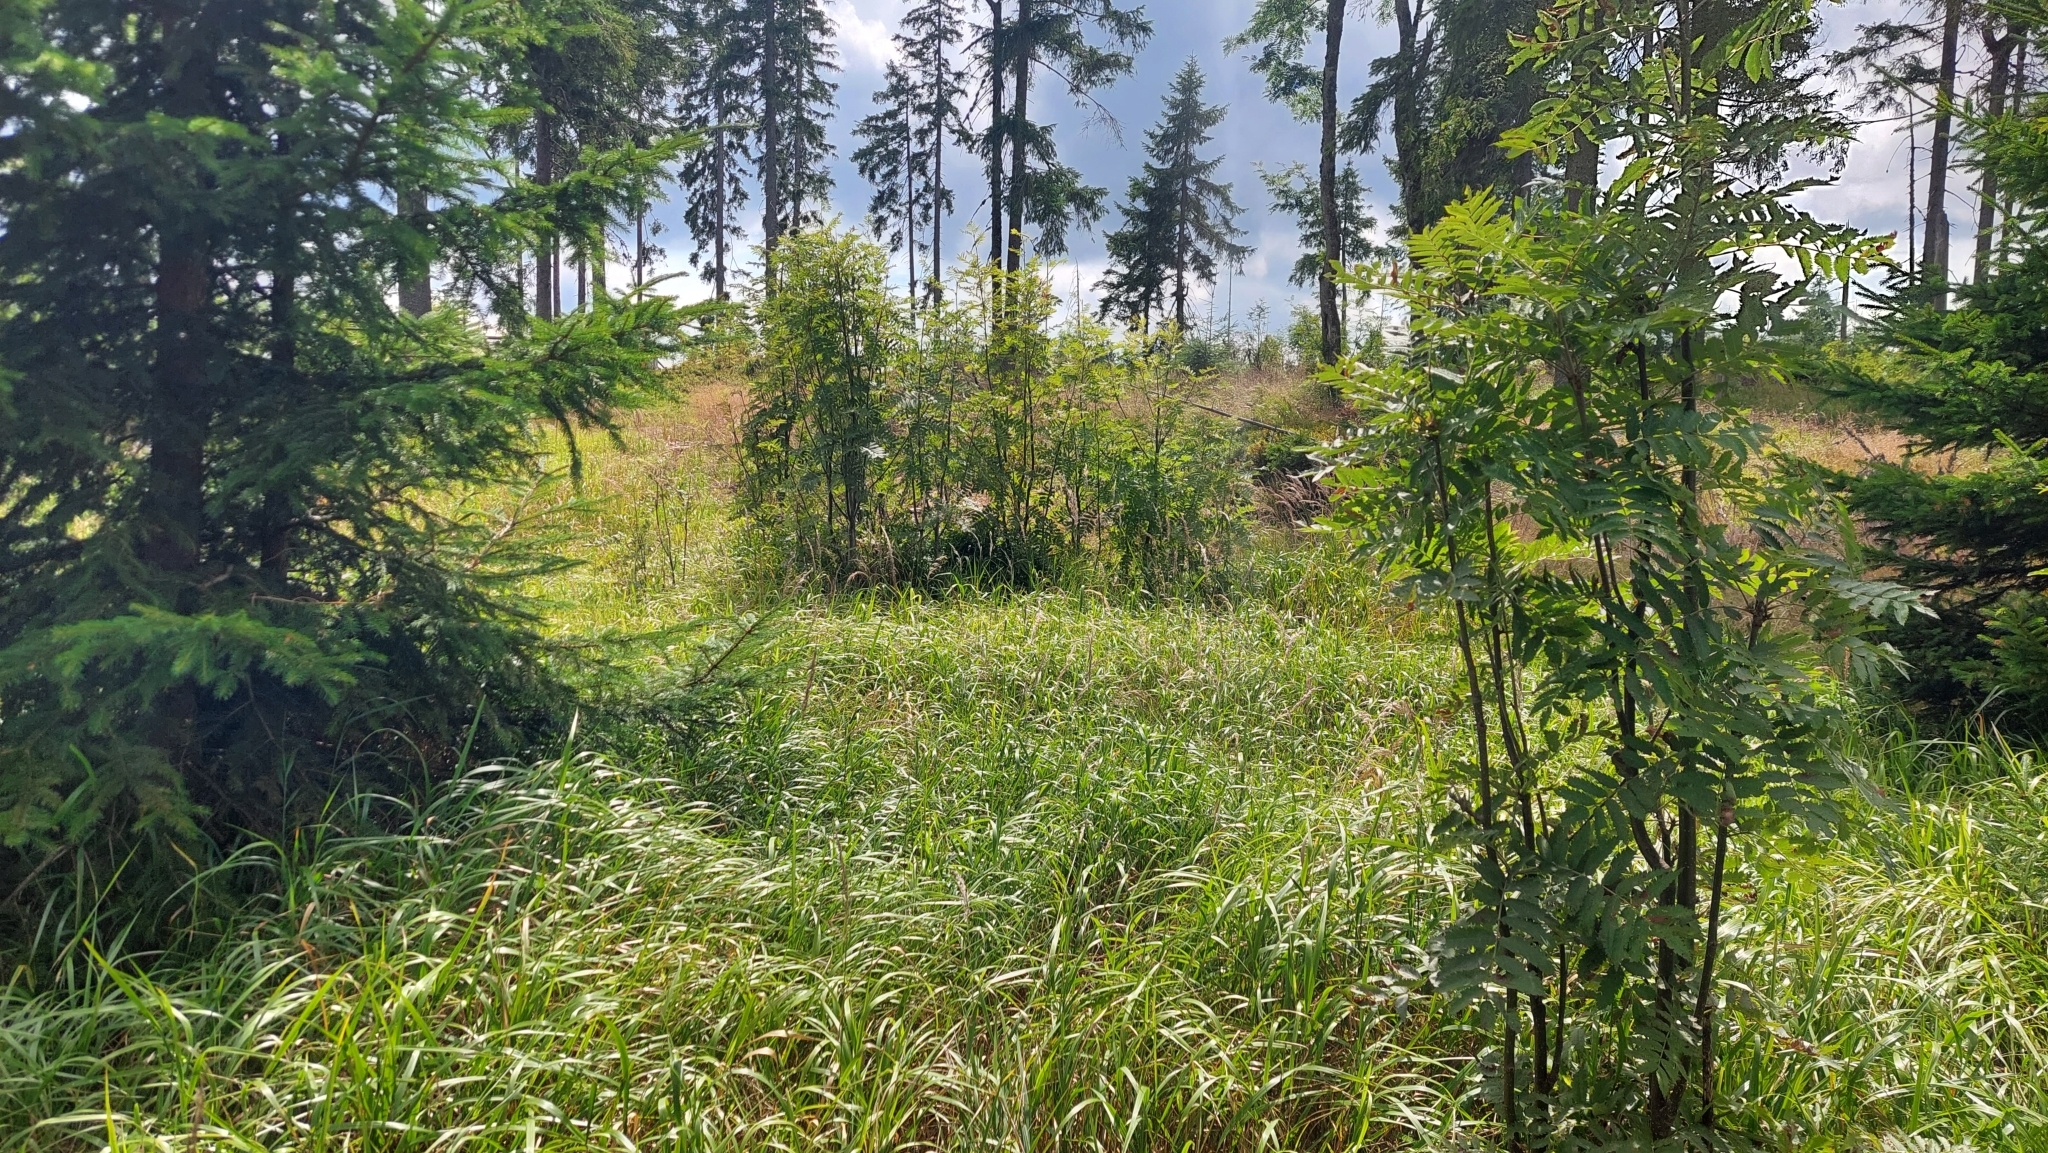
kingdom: Animalia
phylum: Arthropoda
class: Insecta
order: Orthoptera
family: Tettigoniidae
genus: Roeseliana
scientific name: Roeseliana roeselii
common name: Roesel's bush cricket
